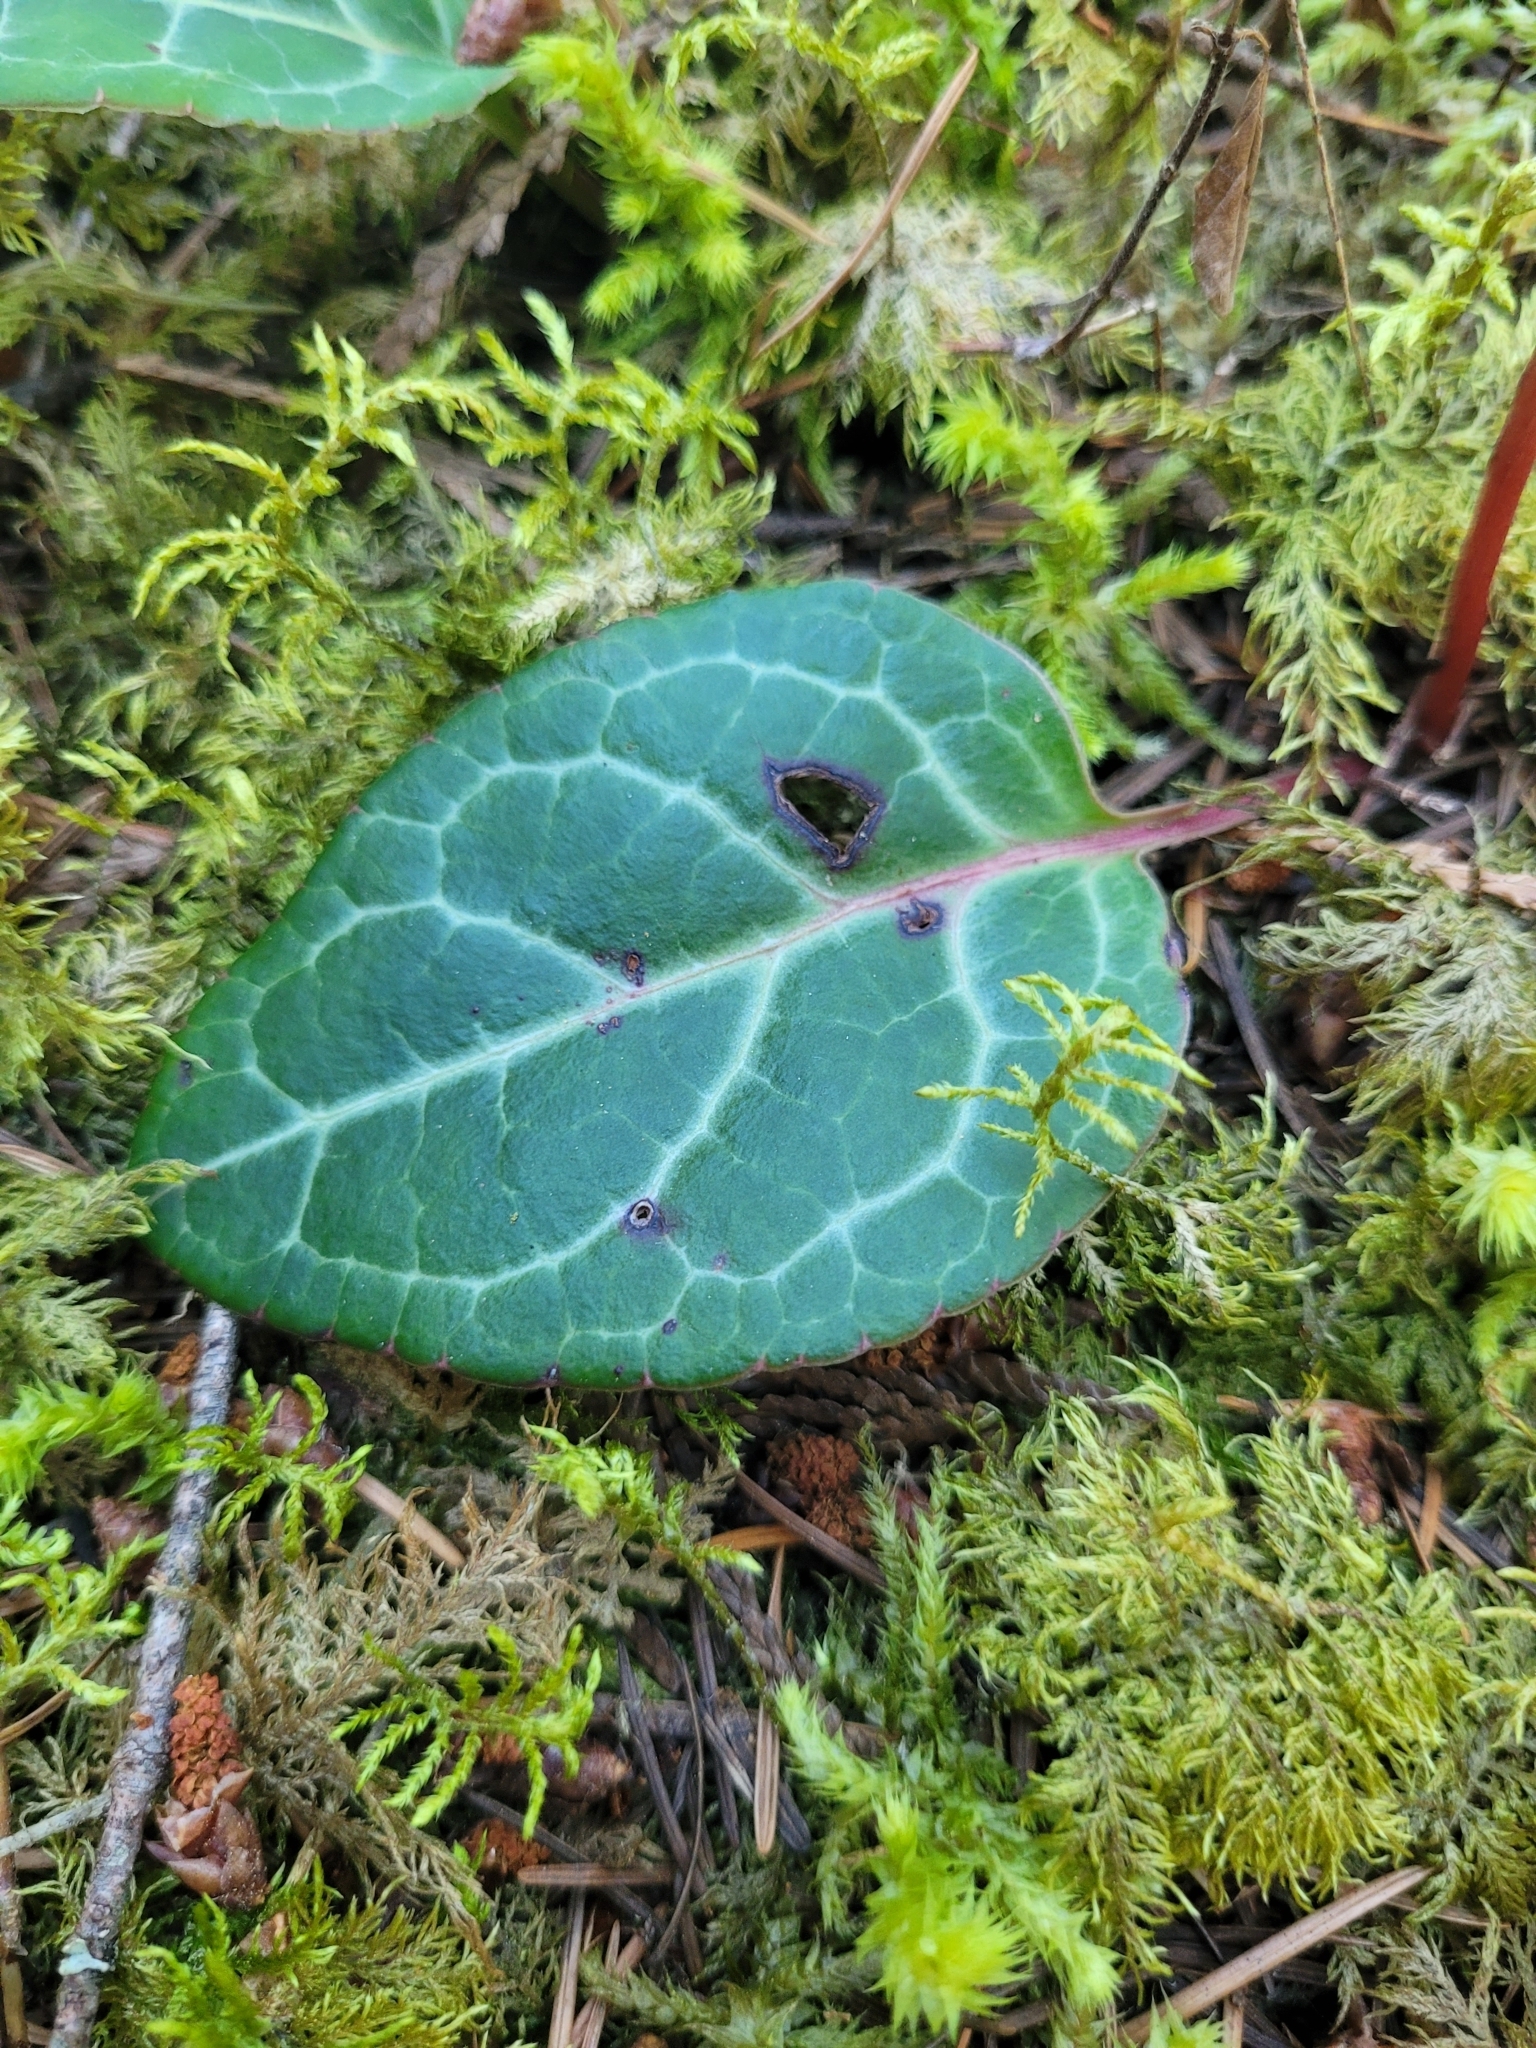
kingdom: Plantae
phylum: Tracheophyta
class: Magnoliopsida
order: Ericales
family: Ericaceae
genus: Pyrola
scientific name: Pyrola picta
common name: White-vein wintergreen
